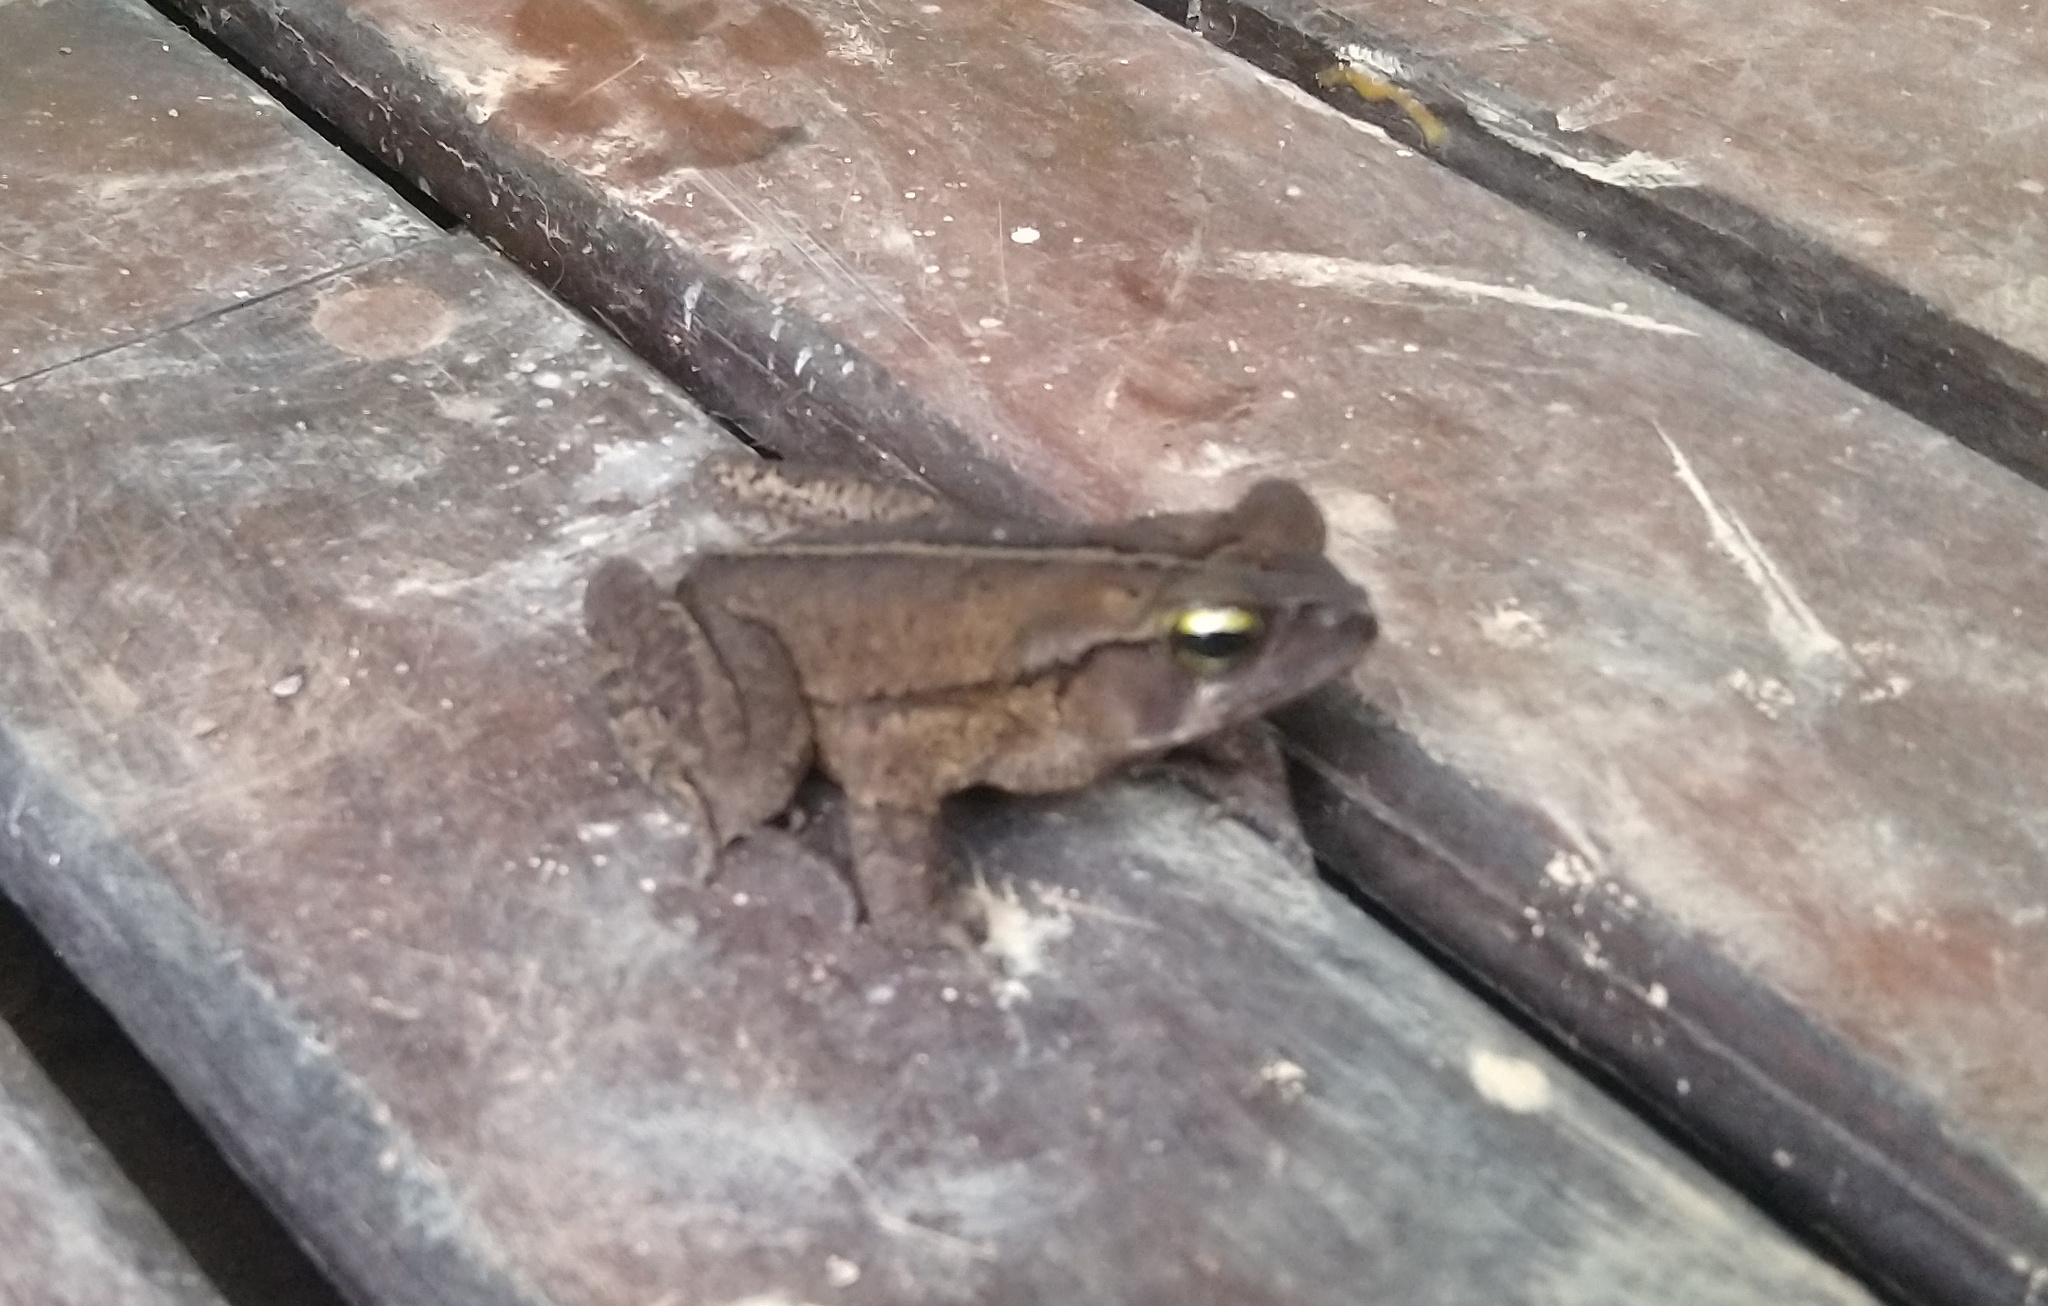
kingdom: Animalia
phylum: Chordata
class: Amphibia
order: Anura
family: Bufonidae
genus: Rhinella
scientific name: Rhinella ornata
